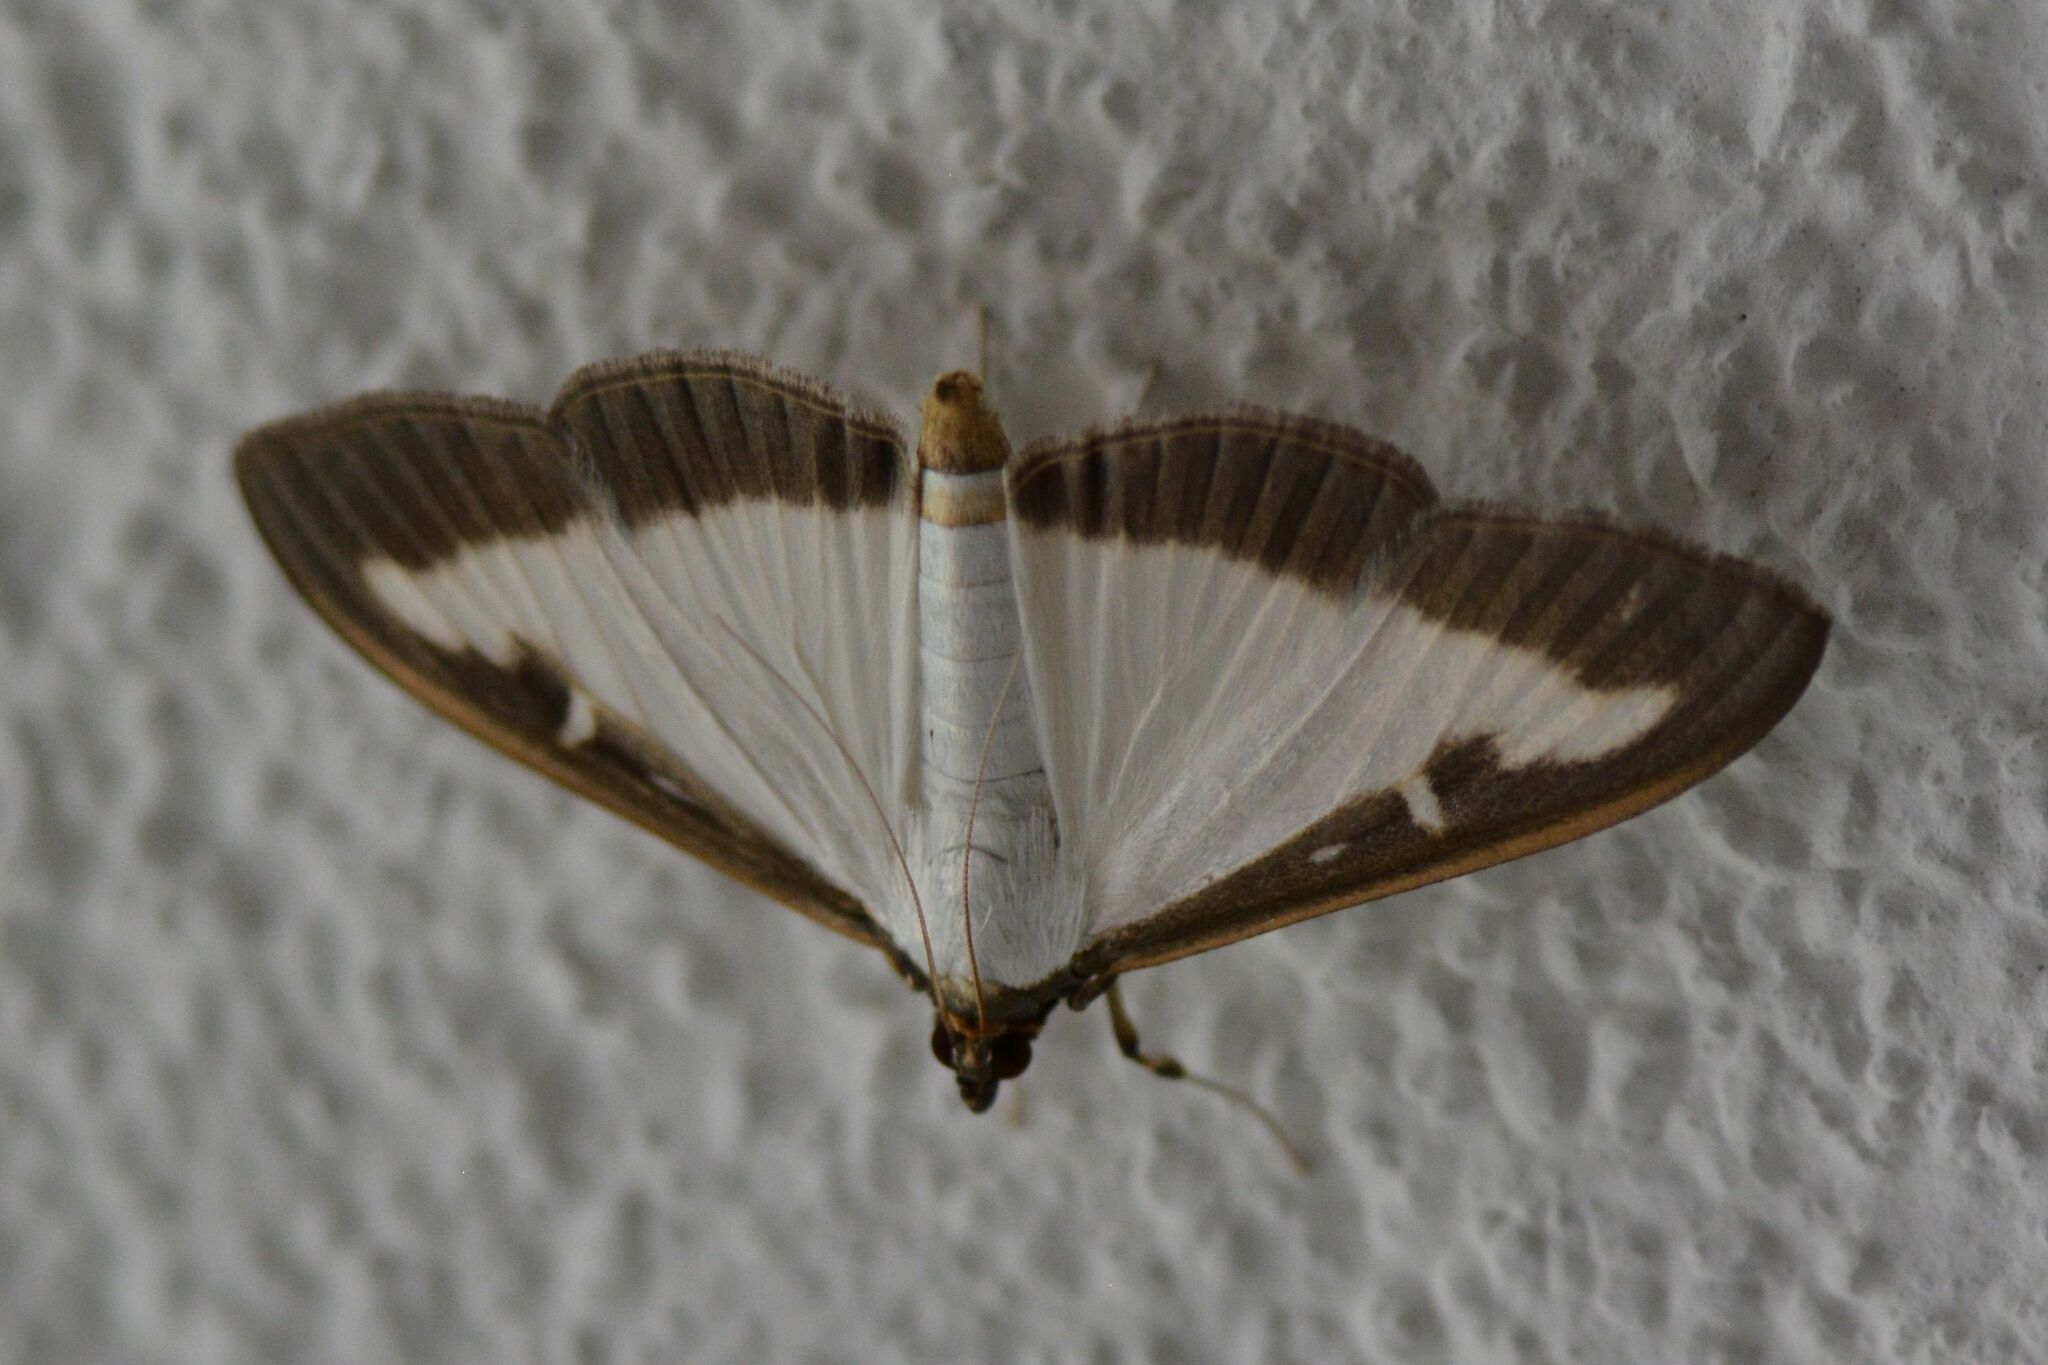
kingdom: Animalia
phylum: Arthropoda
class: Insecta
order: Lepidoptera
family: Crambidae
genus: Cydalima
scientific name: Cydalima perspectalis
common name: Box tree moth
